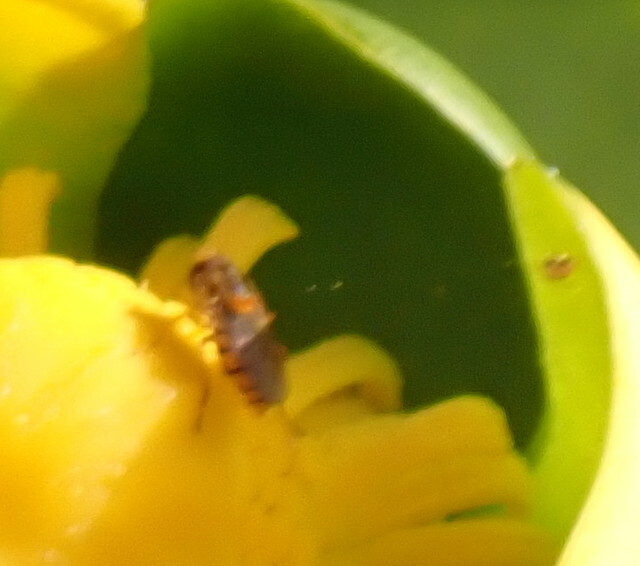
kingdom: Animalia
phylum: Arthropoda
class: Insecta
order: Diptera
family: Syrphidae
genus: Toxomerus
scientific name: Toxomerus jussiaeae
